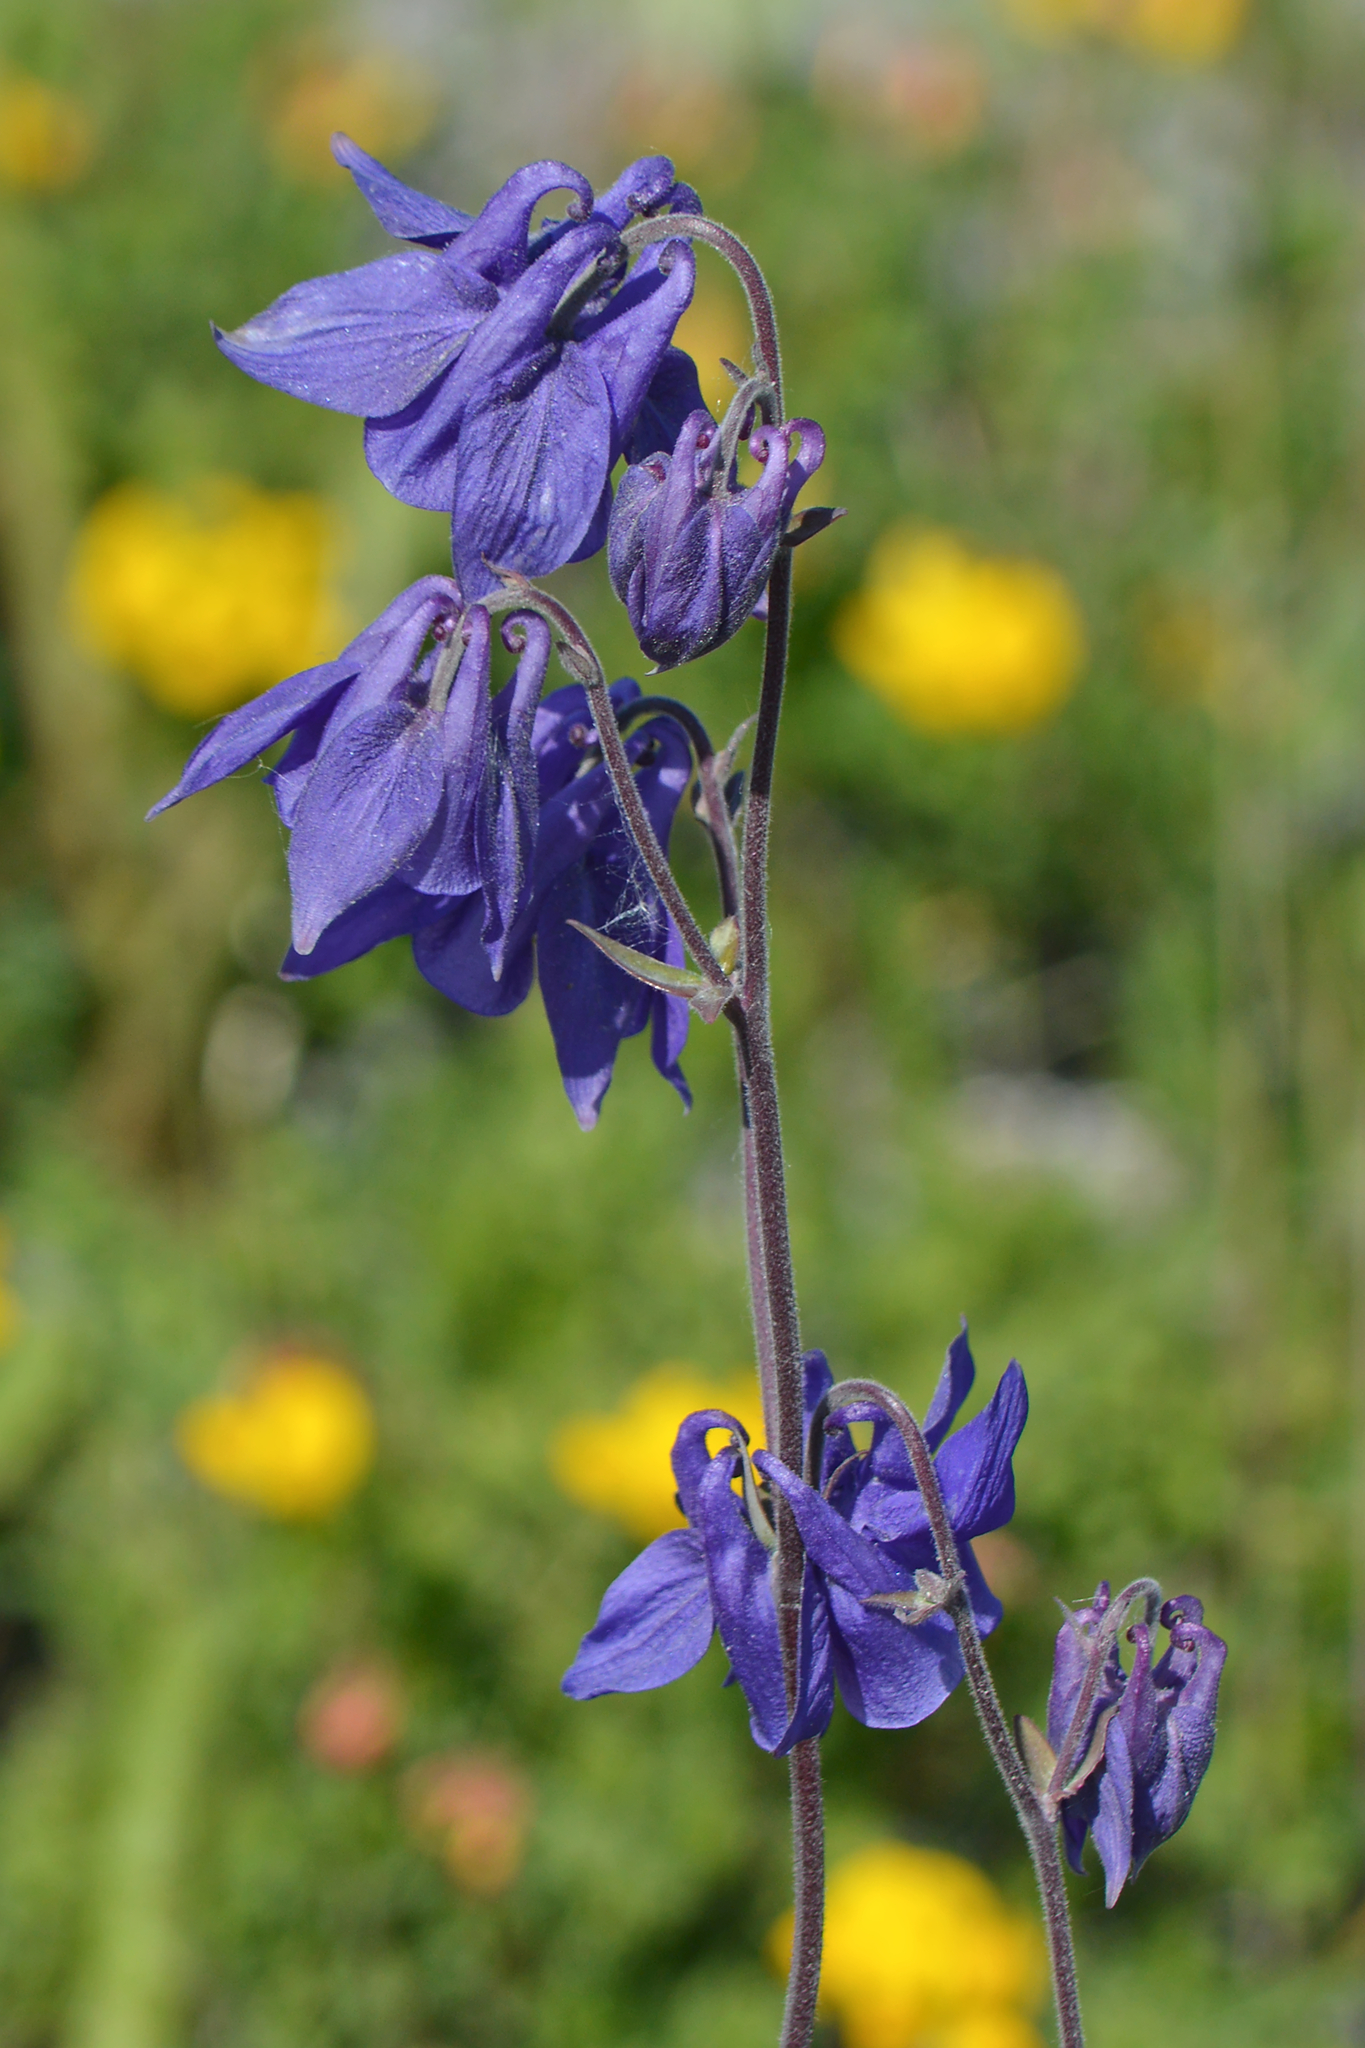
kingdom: Plantae
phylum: Tracheophyta
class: Magnoliopsida
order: Ranunculales
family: Ranunculaceae
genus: Aquilegia
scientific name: Aquilegia vulgaris
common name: Columbine
